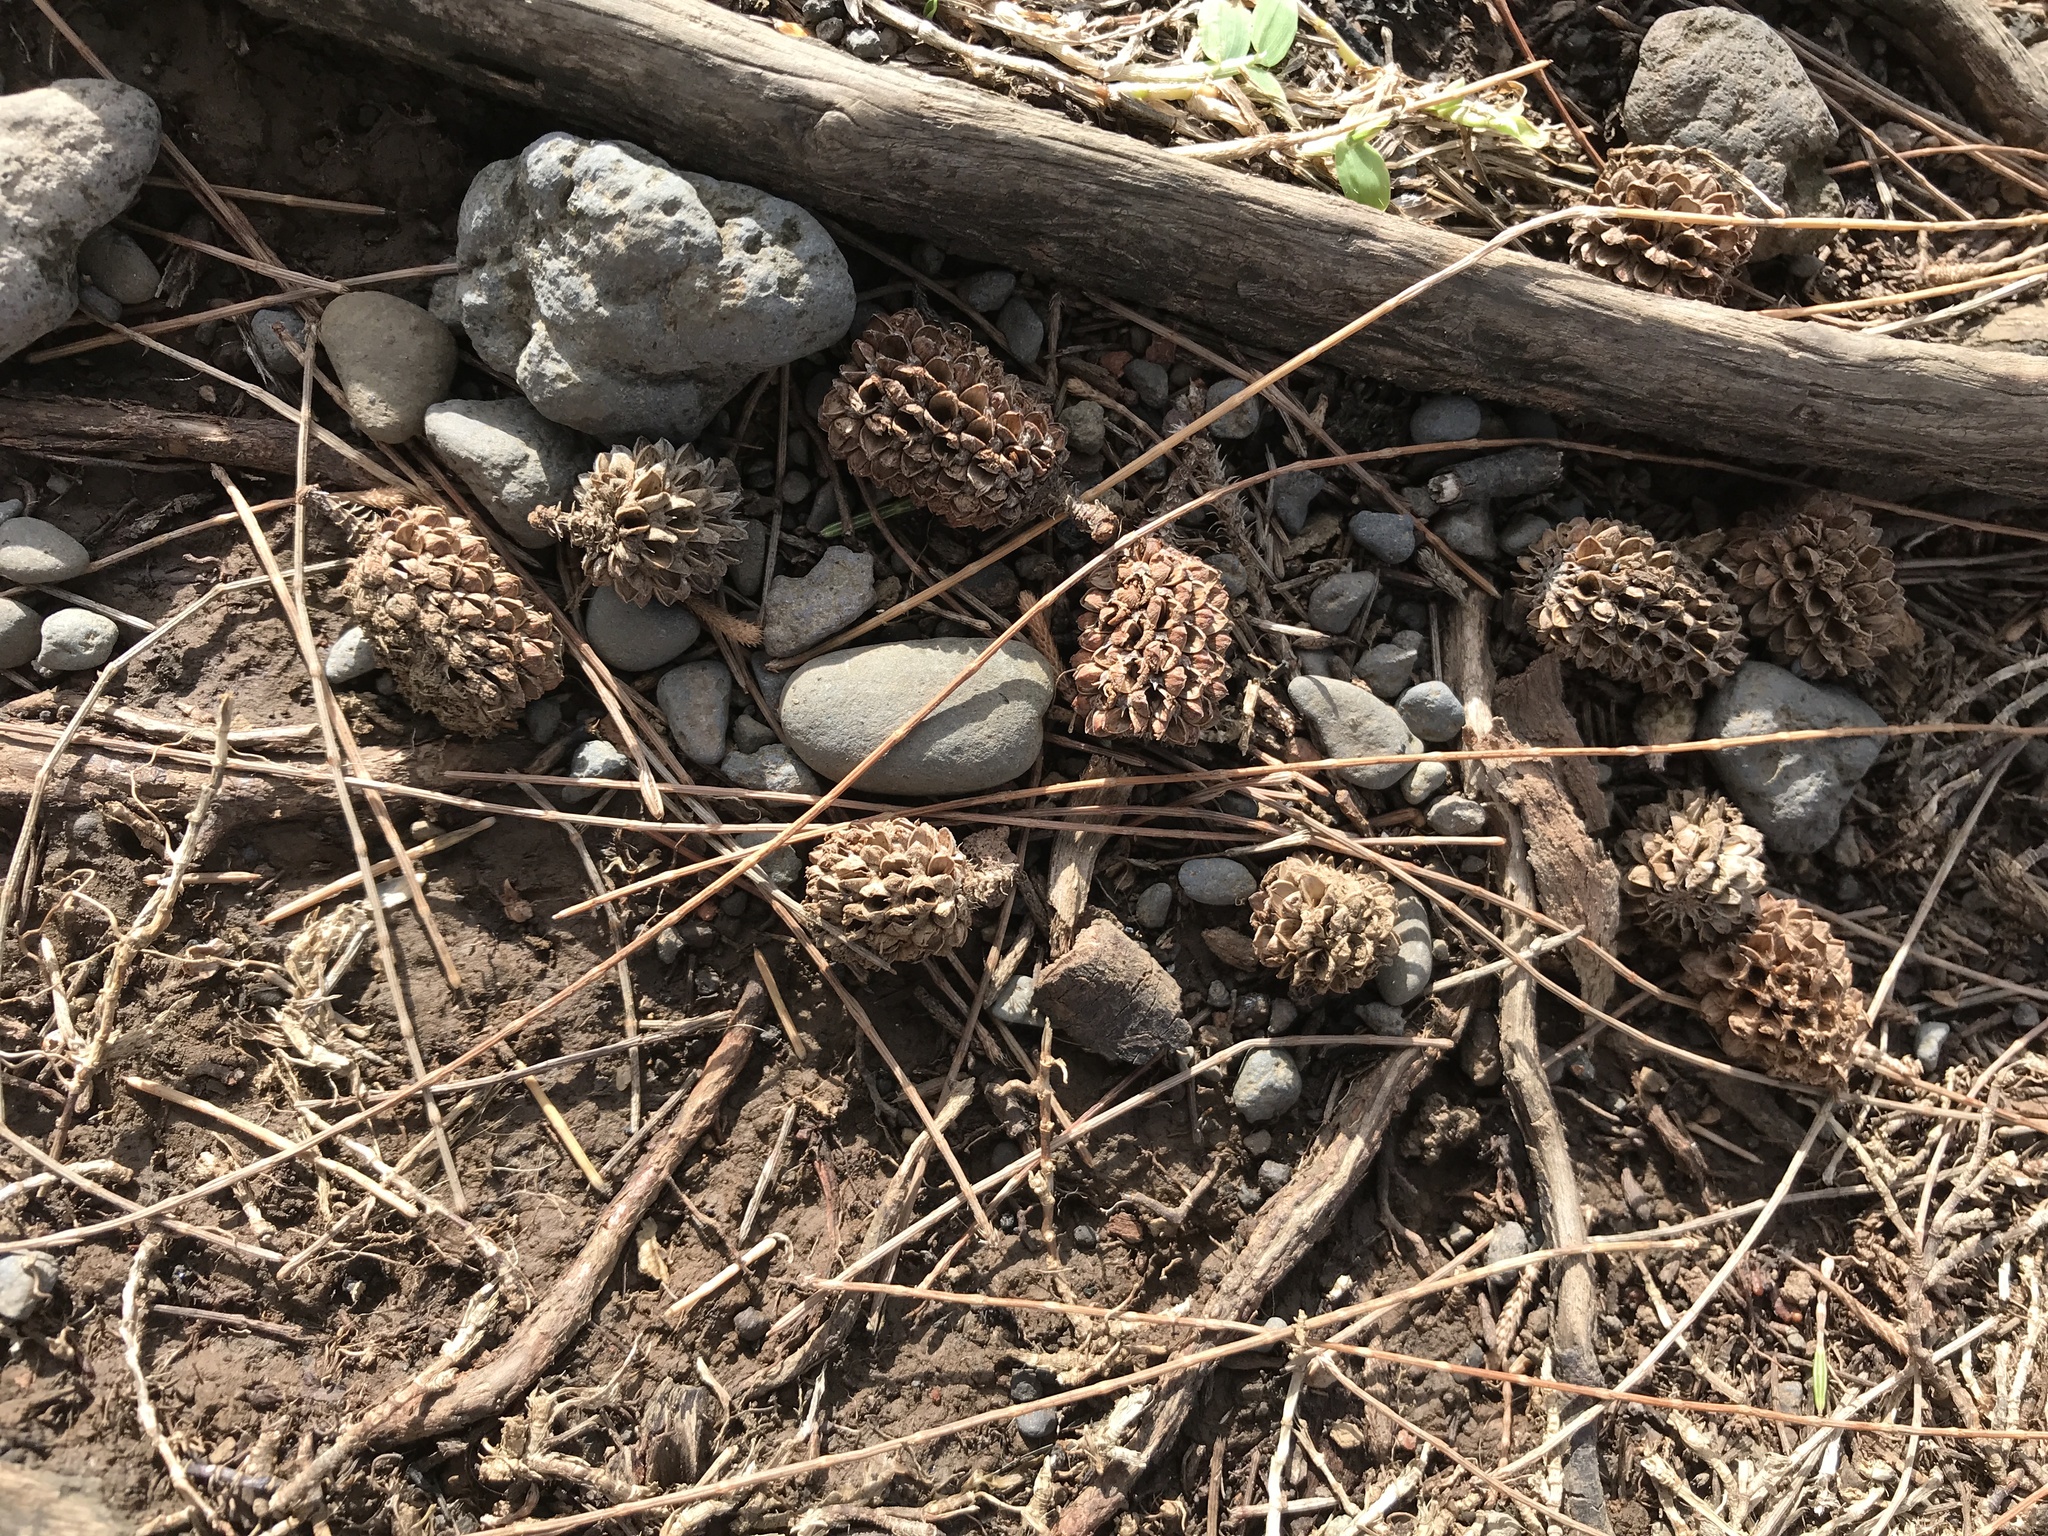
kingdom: Plantae
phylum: Tracheophyta
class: Magnoliopsida
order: Fagales
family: Casuarinaceae
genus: Casuarina
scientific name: Casuarina equisetifolia
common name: Beach sheoak
